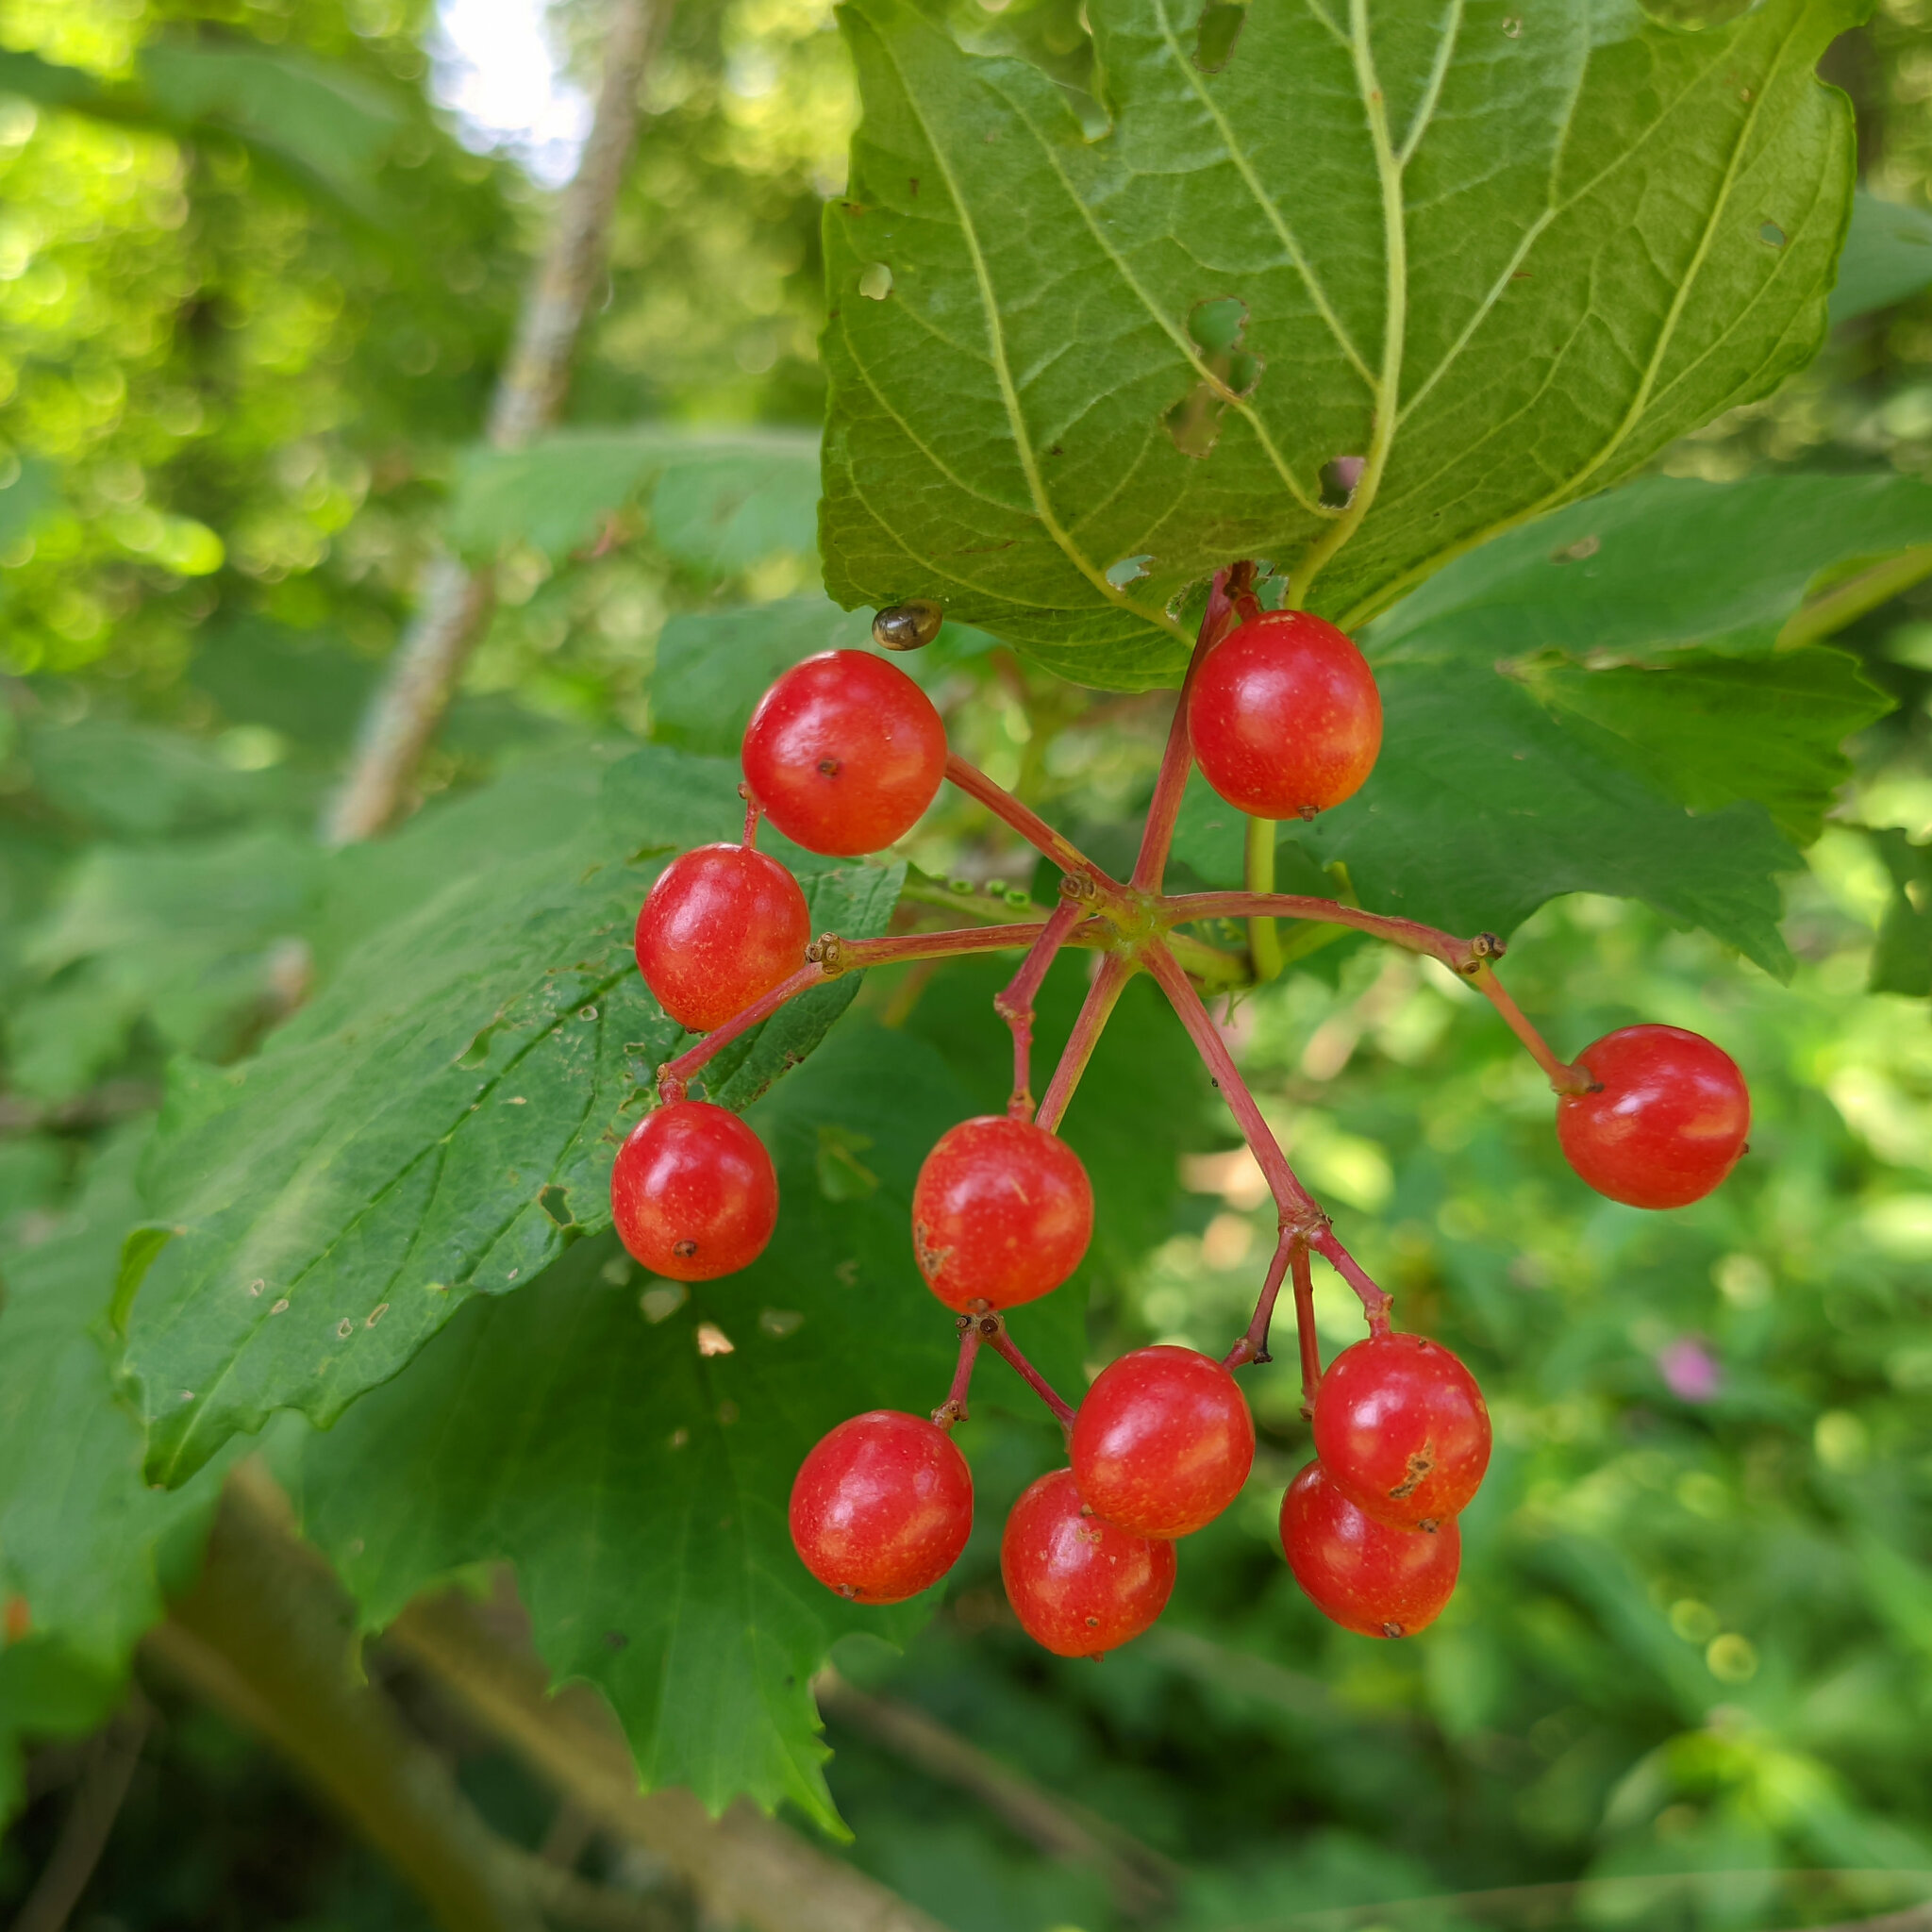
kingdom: Plantae
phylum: Tracheophyta
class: Magnoliopsida
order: Dipsacales
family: Viburnaceae
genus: Viburnum
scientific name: Viburnum opulus
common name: Guelder-rose
